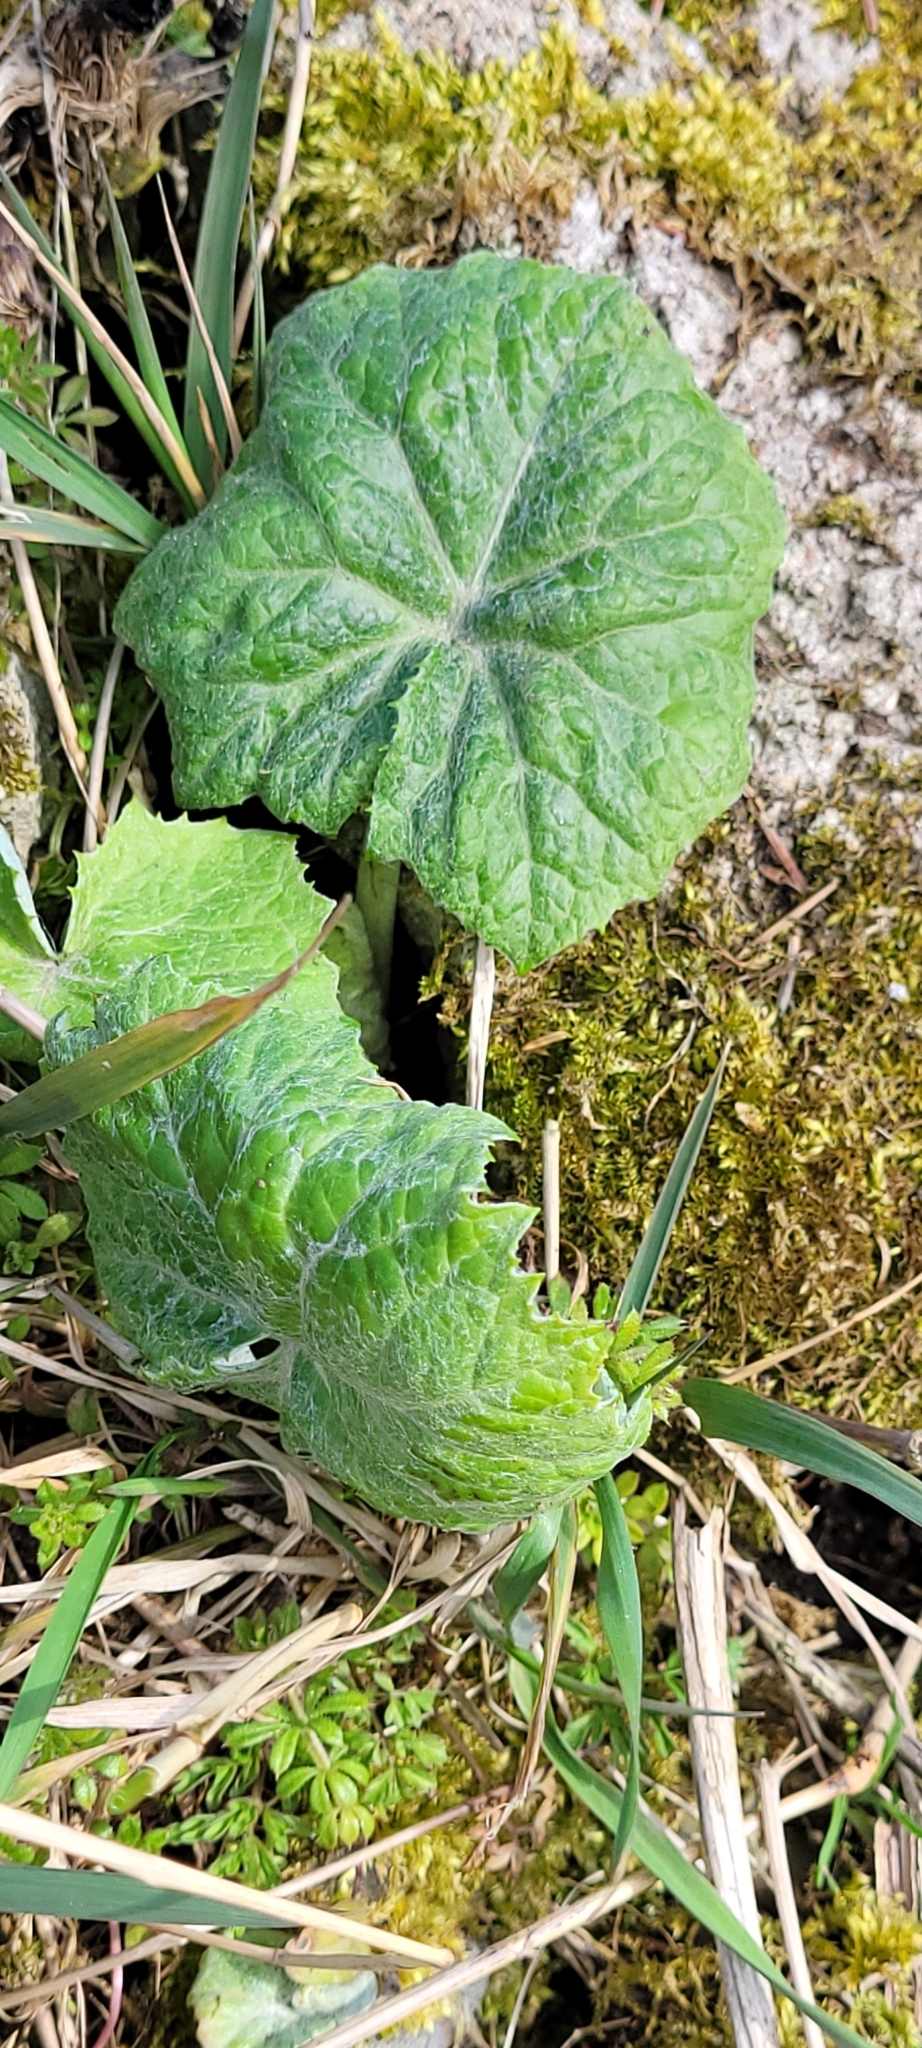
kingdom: Plantae
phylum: Tracheophyta
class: Magnoliopsida
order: Asterales
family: Asteraceae
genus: Petasites
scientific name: Petasites albus
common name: White butterbur
